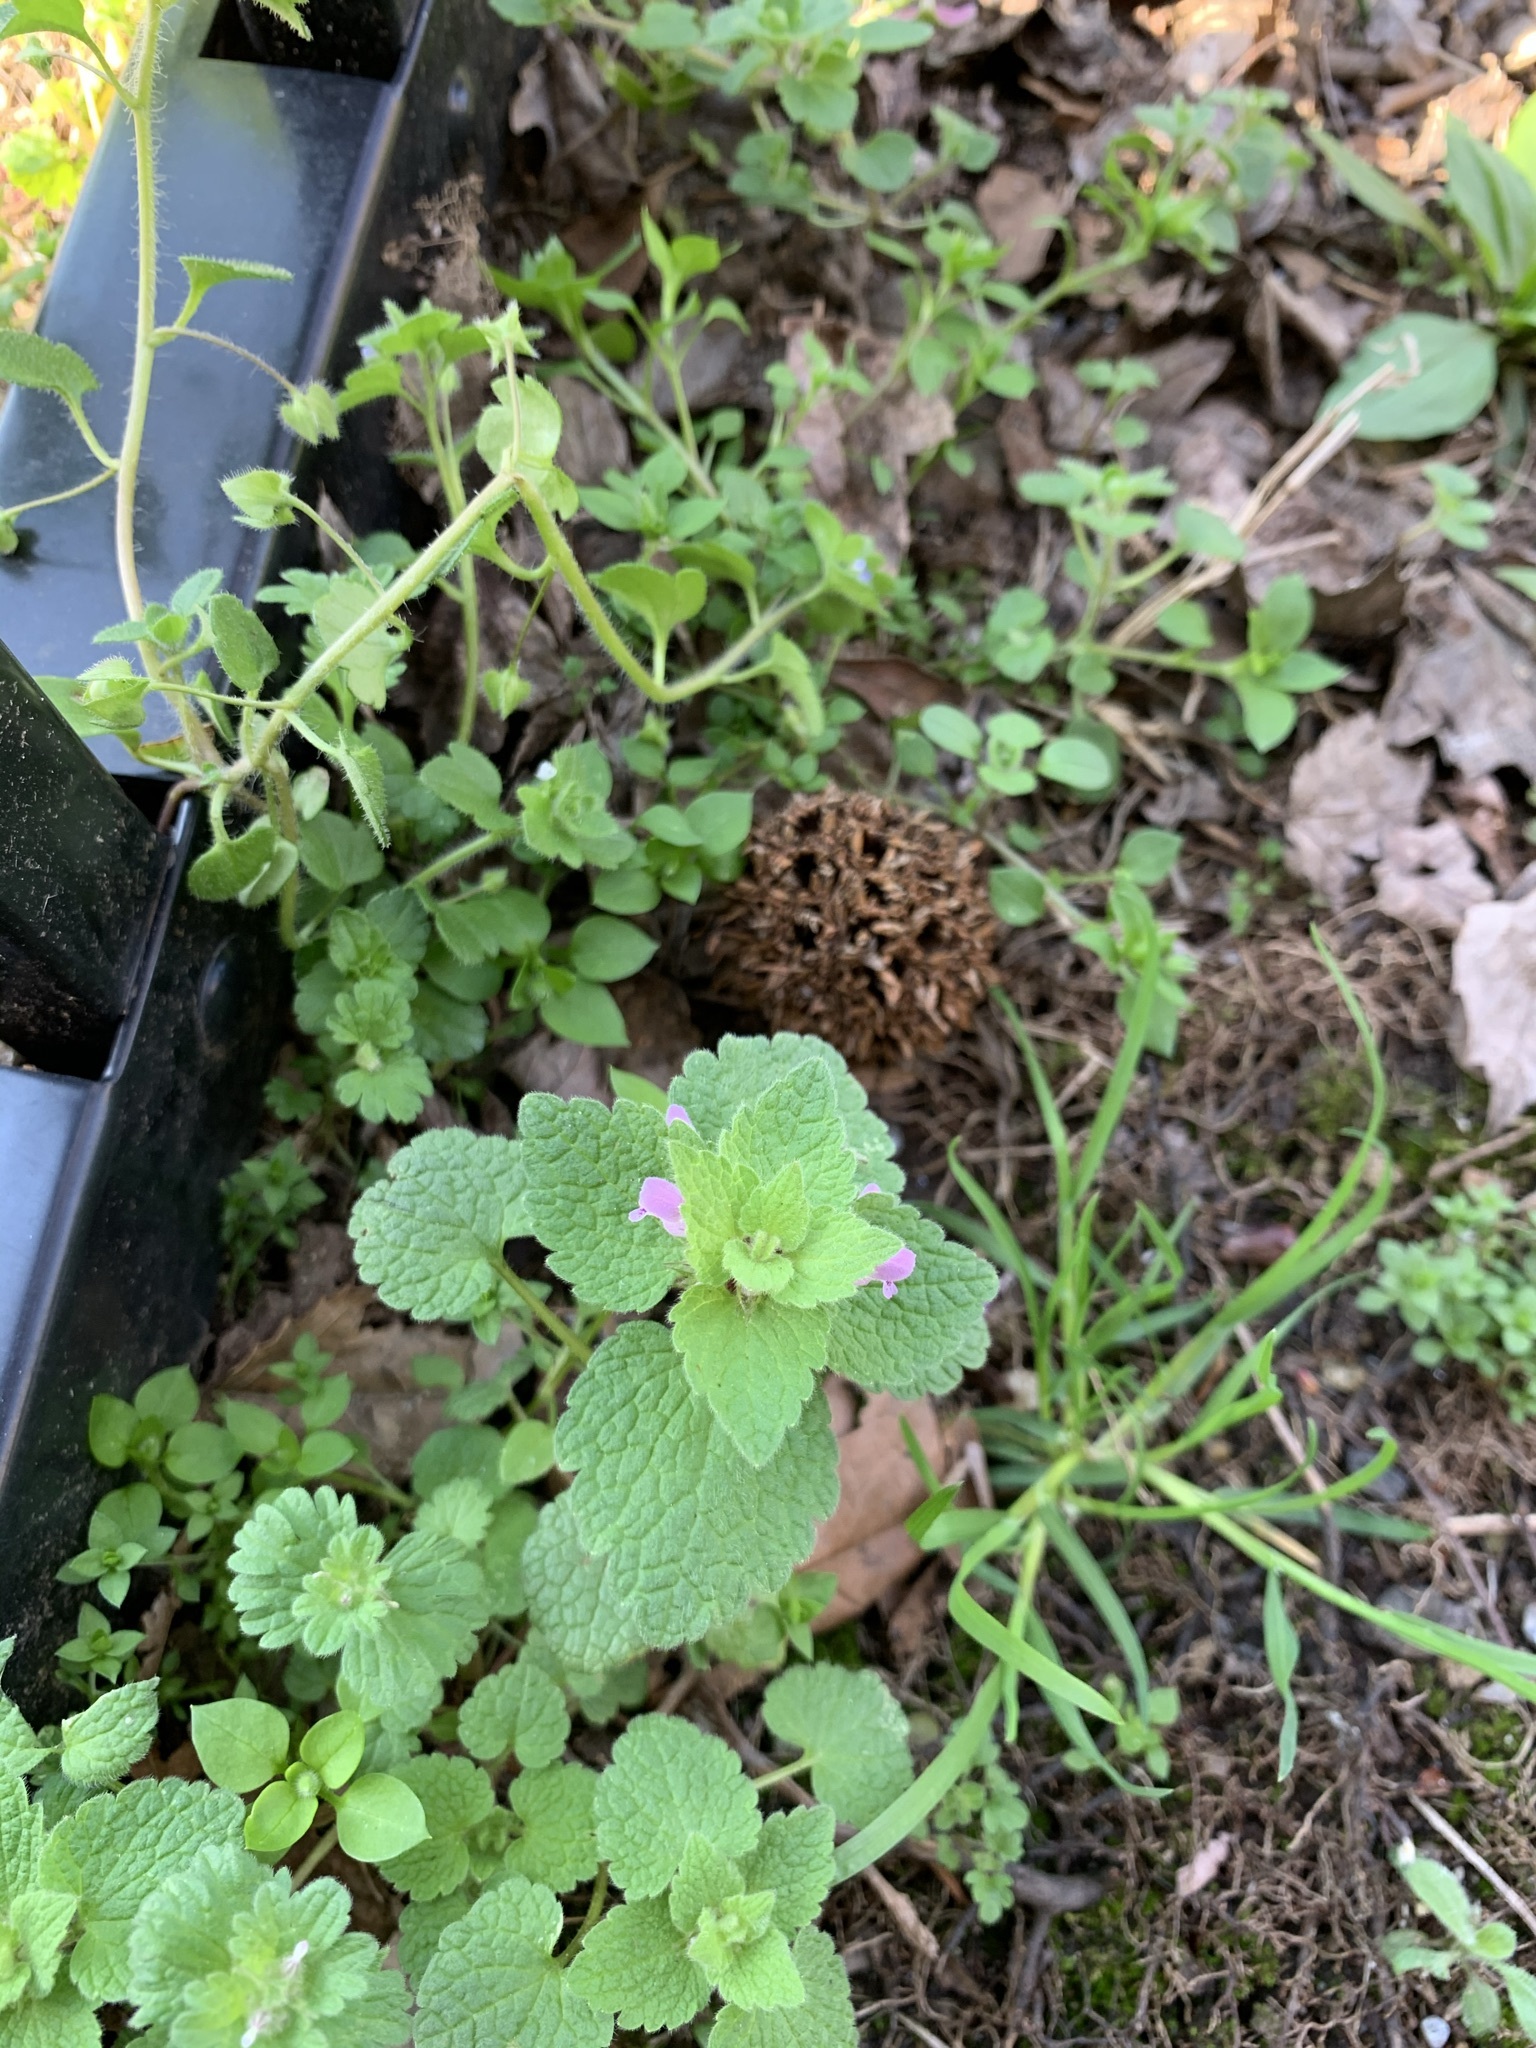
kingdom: Plantae
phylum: Tracheophyta
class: Magnoliopsida
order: Lamiales
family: Lamiaceae
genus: Lamium
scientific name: Lamium purpureum
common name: Red dead-nettle
